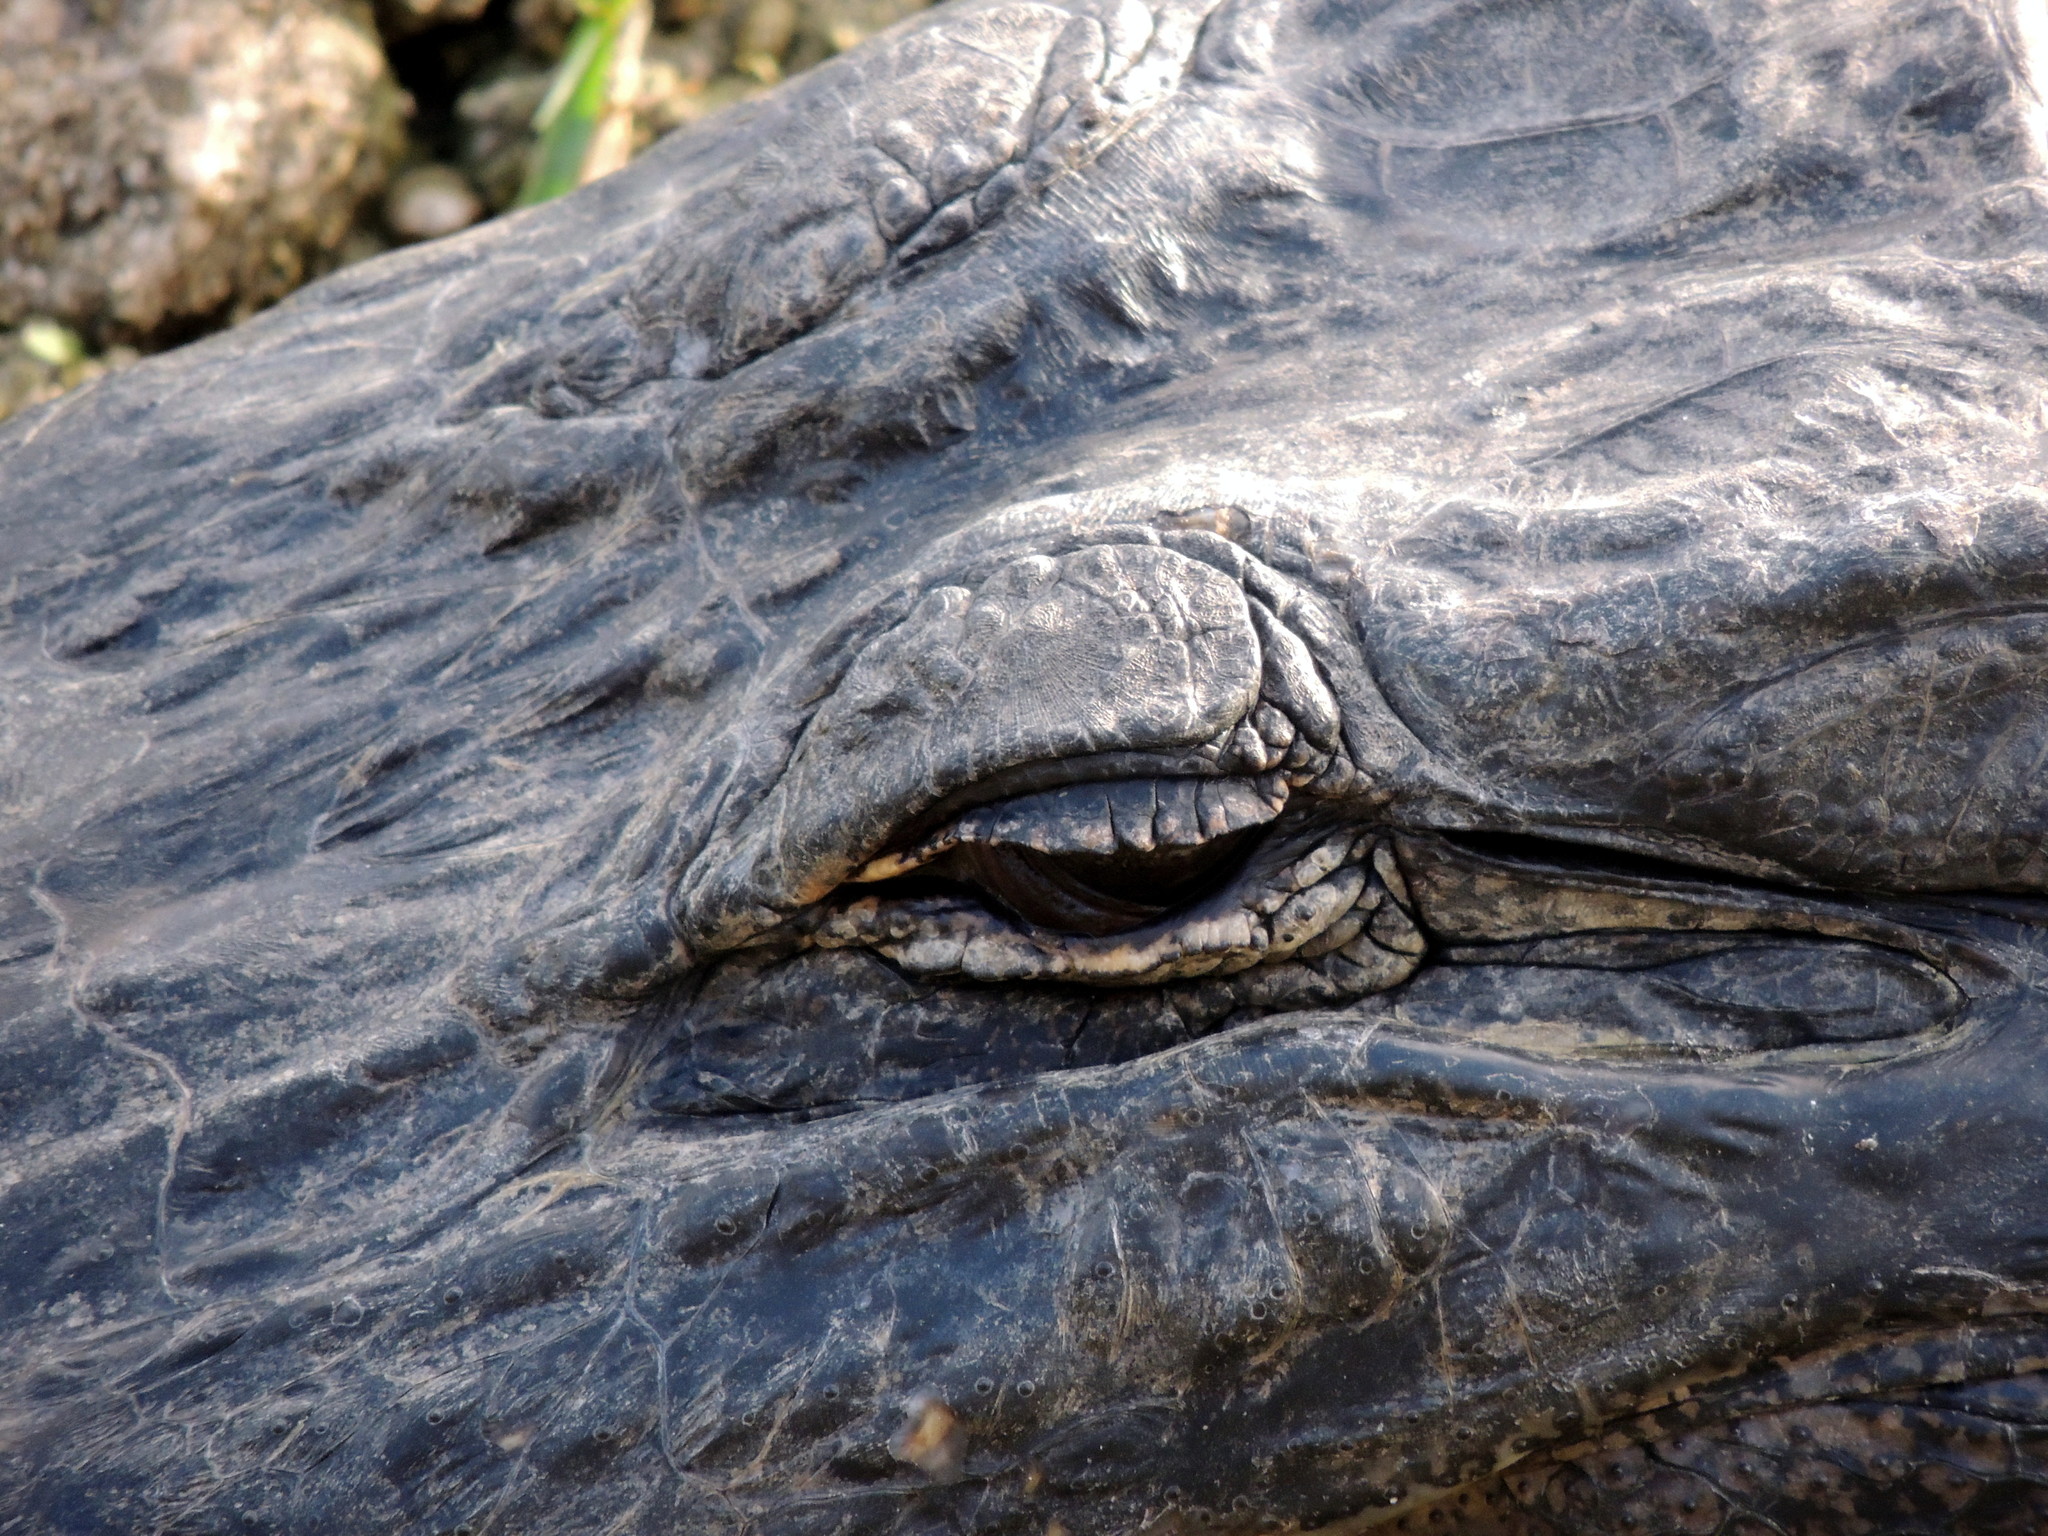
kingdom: Animalia
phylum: Chordata
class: Crocodylia
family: Alligatoridae
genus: Alligator
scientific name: Alligator mississippiensis
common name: American alligator
